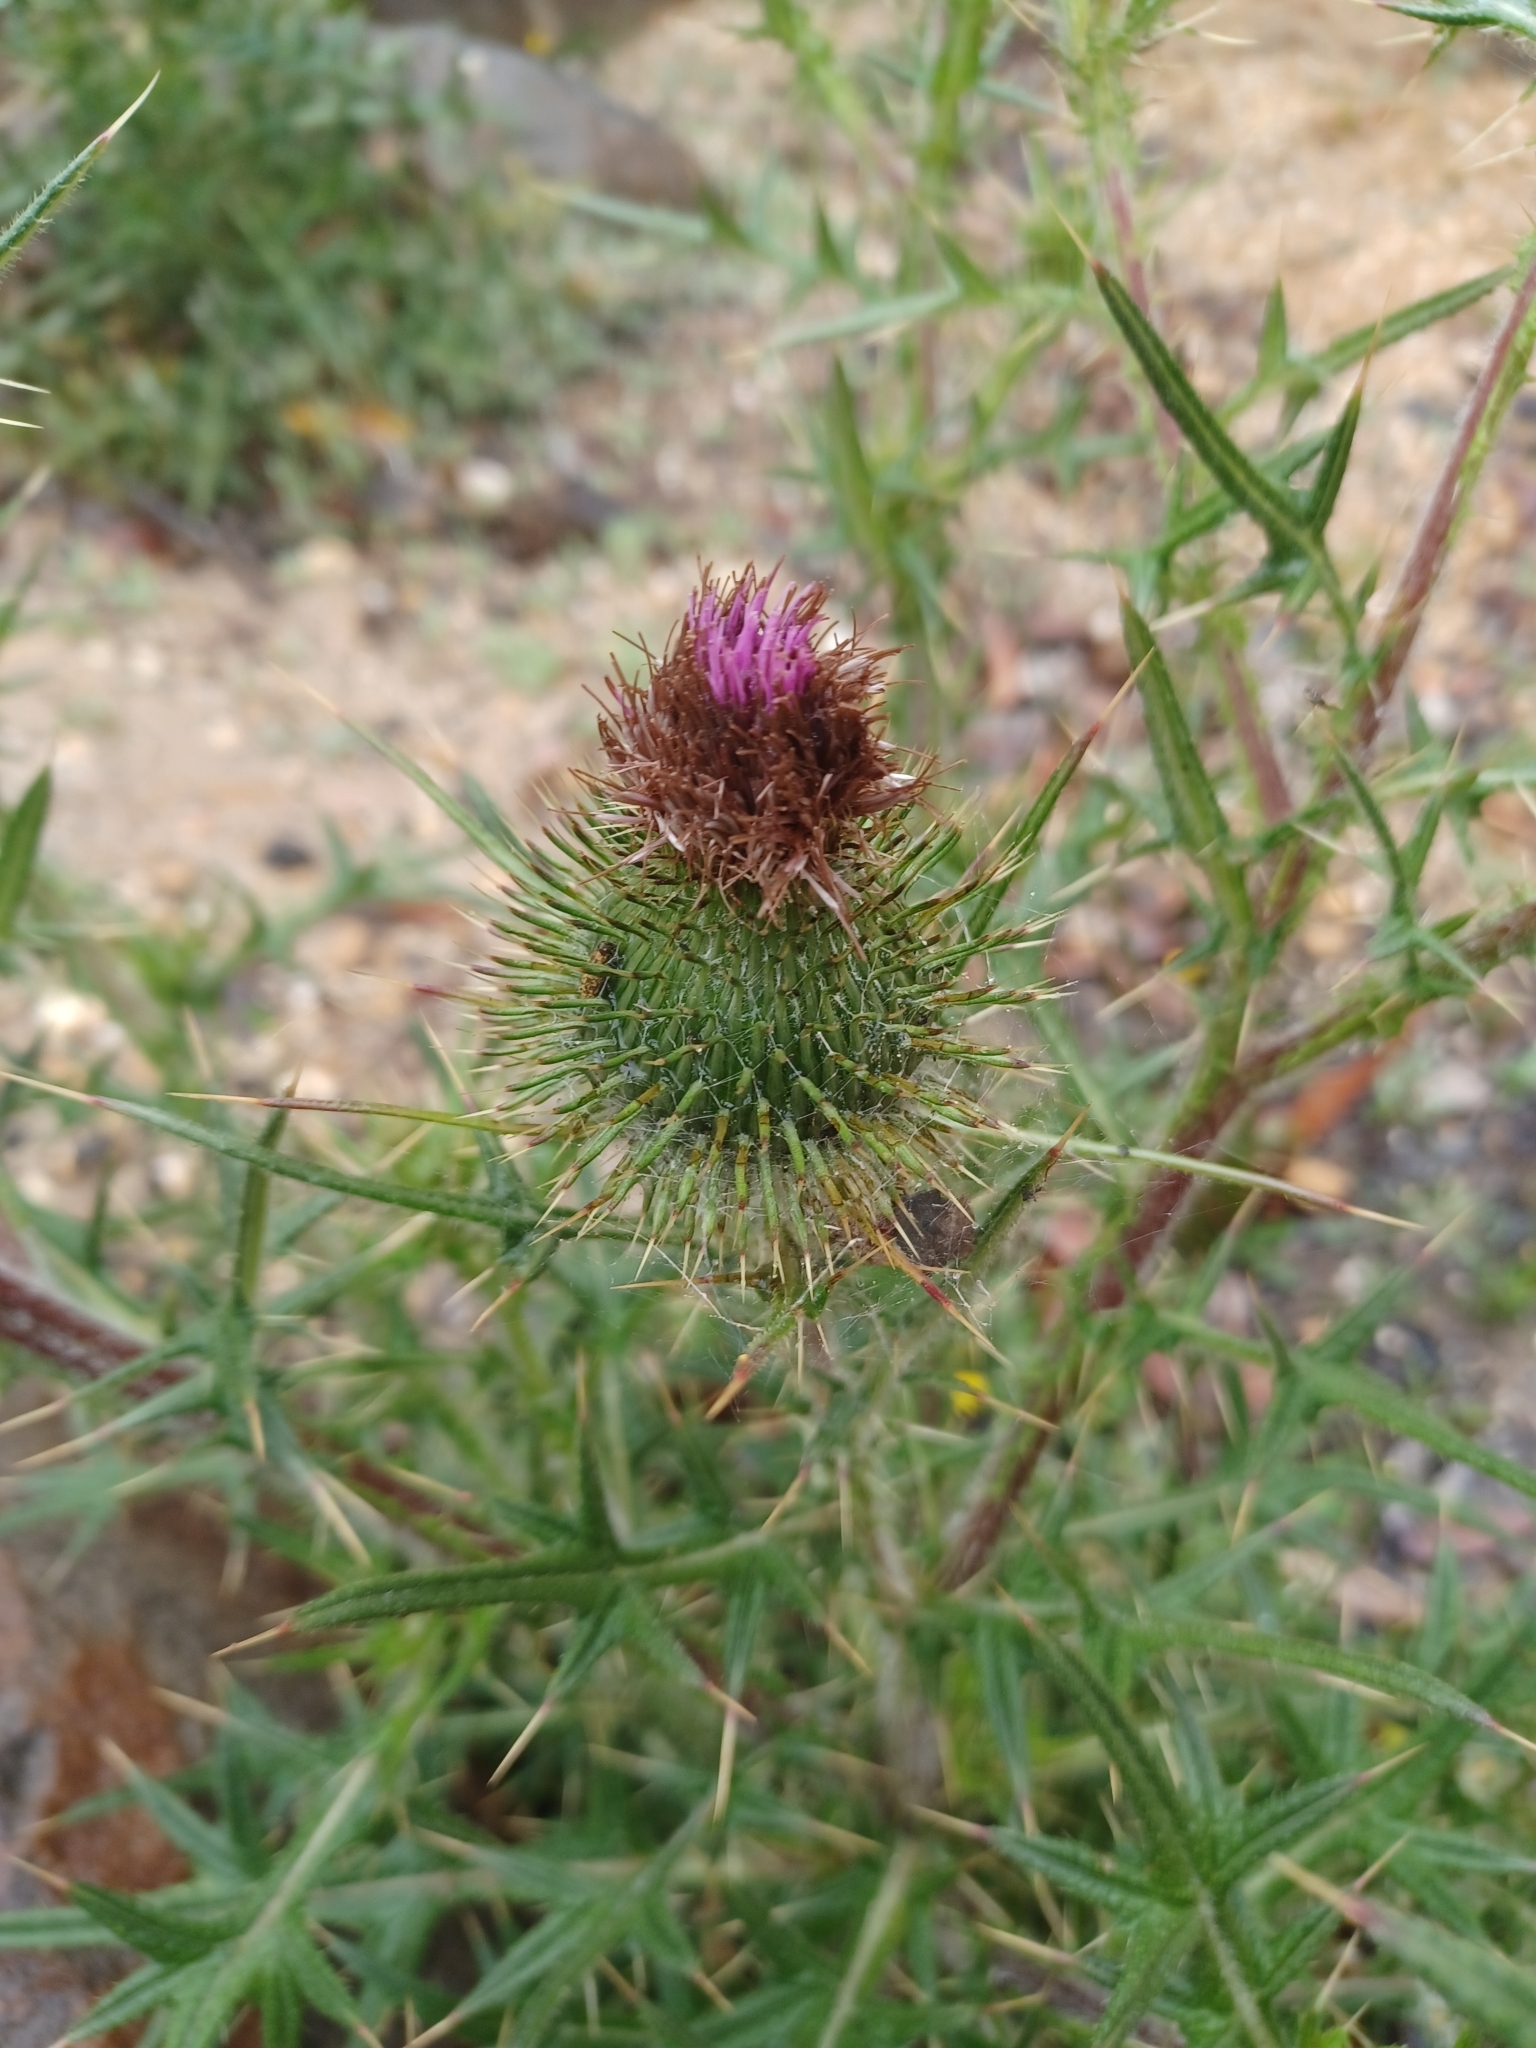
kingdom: Plantae
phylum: Tracheophyta
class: Magnoliopsida
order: Asterales
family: Asteraceae
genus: Cirsium
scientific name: Cirsium vulgare
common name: Bull thistle
